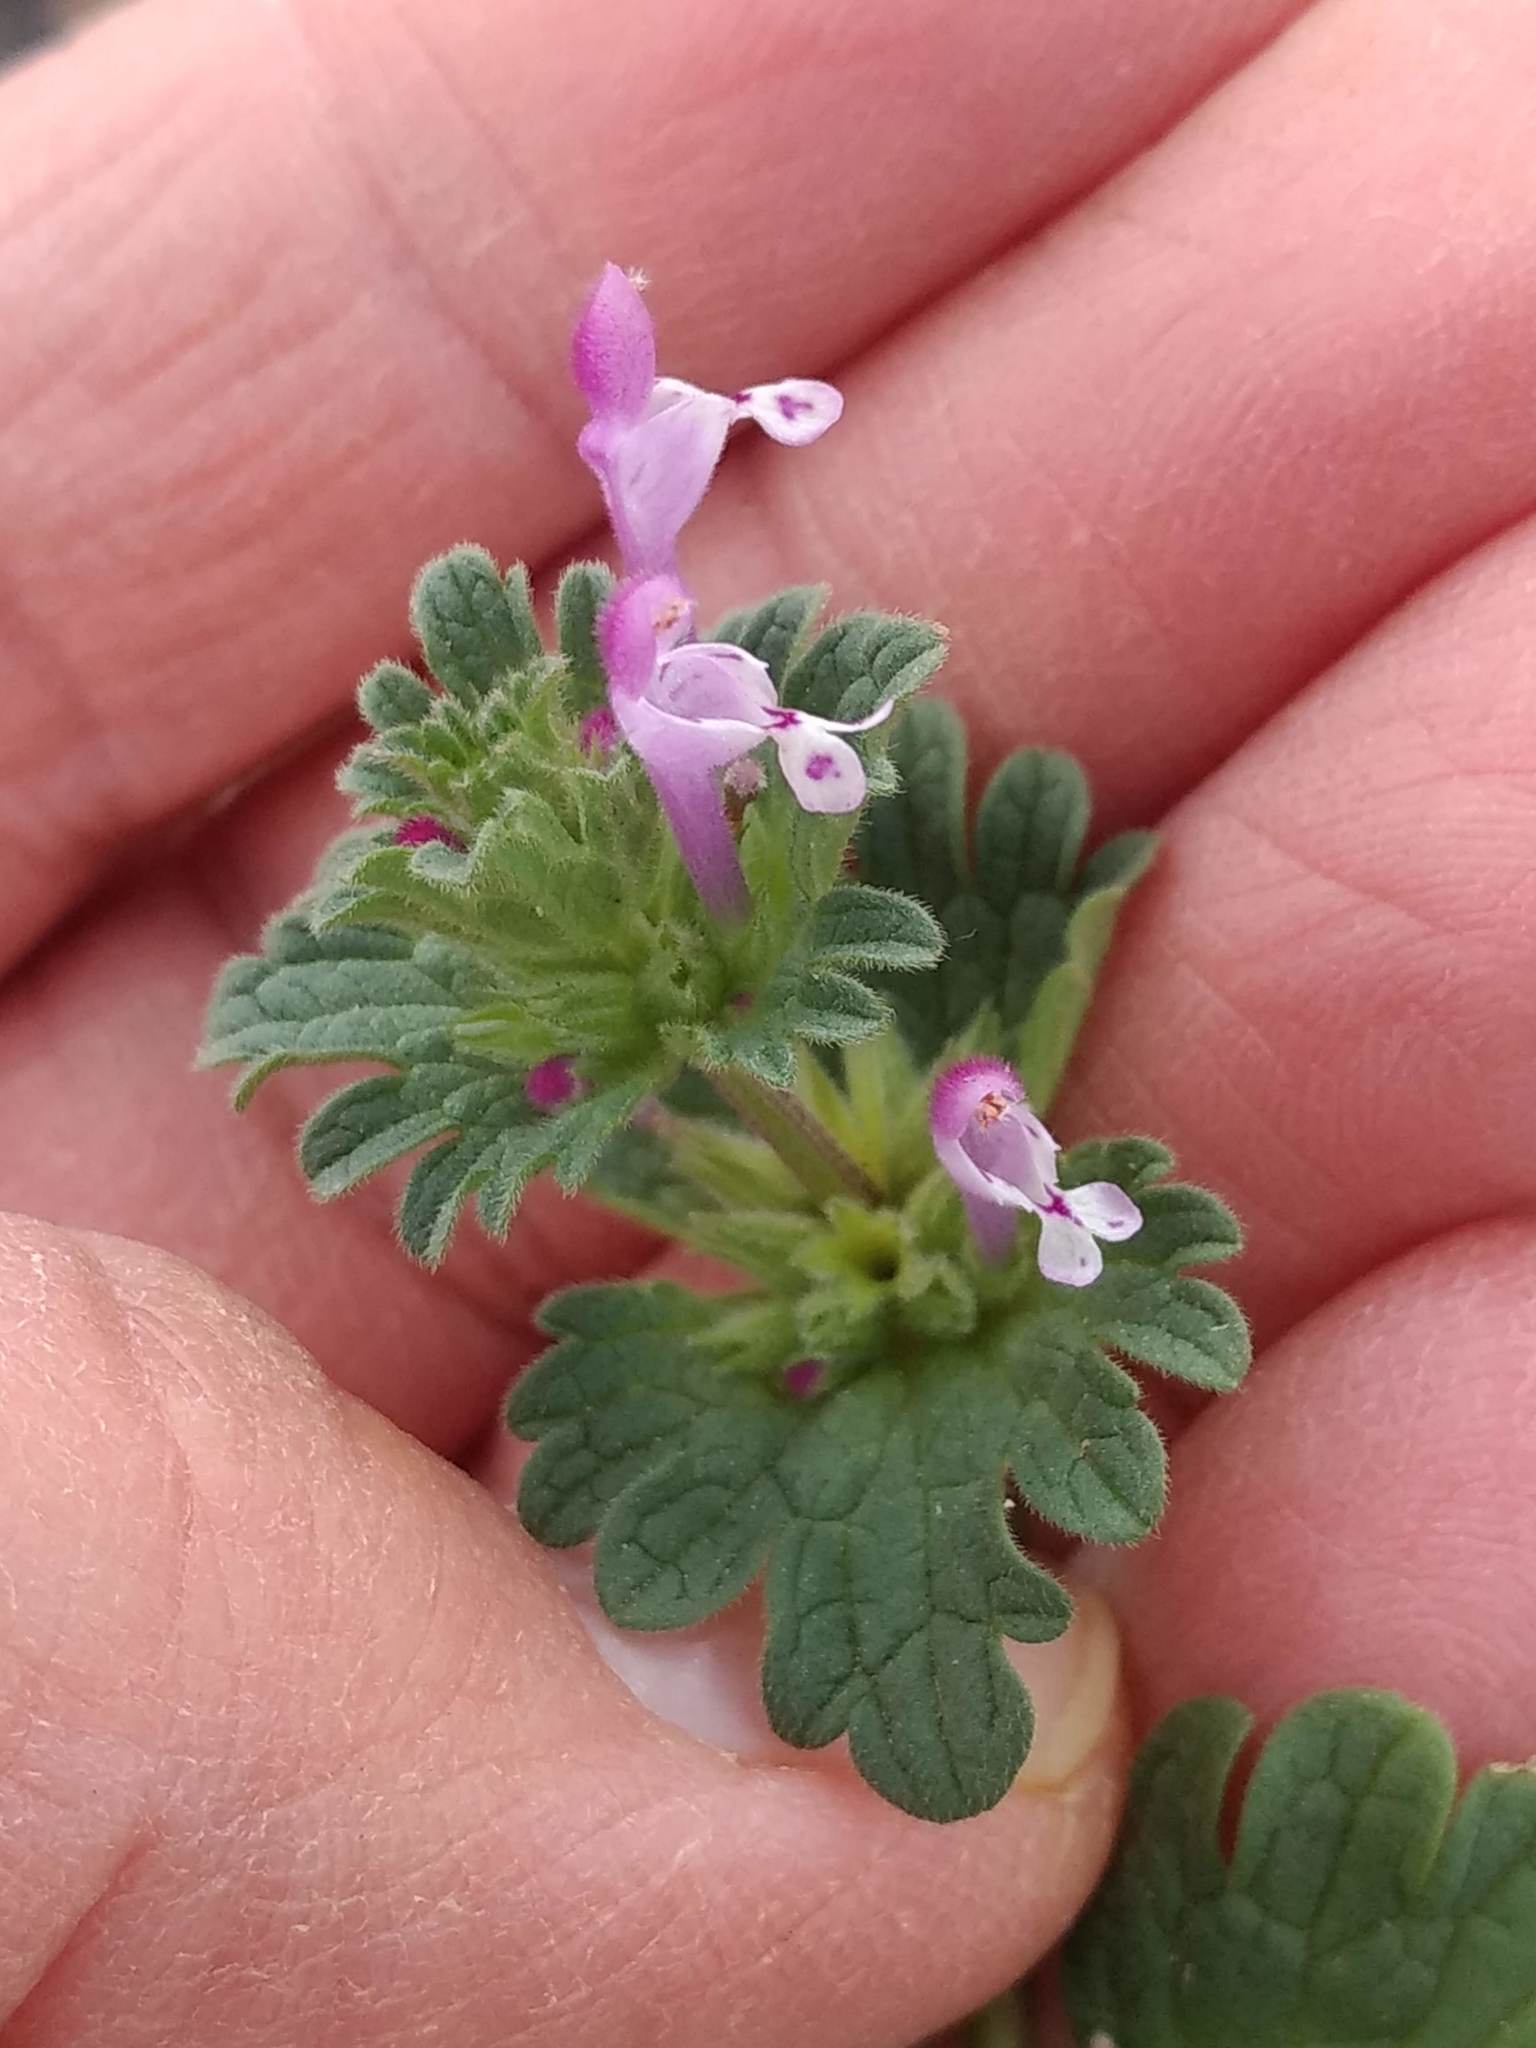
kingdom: Plantae
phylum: Tracheophyta
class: Magnoliopsida
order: Lamiales
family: Lamiaceae
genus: Lamium
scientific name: Lamium amplexicaule
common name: Henbit dead-nettle
